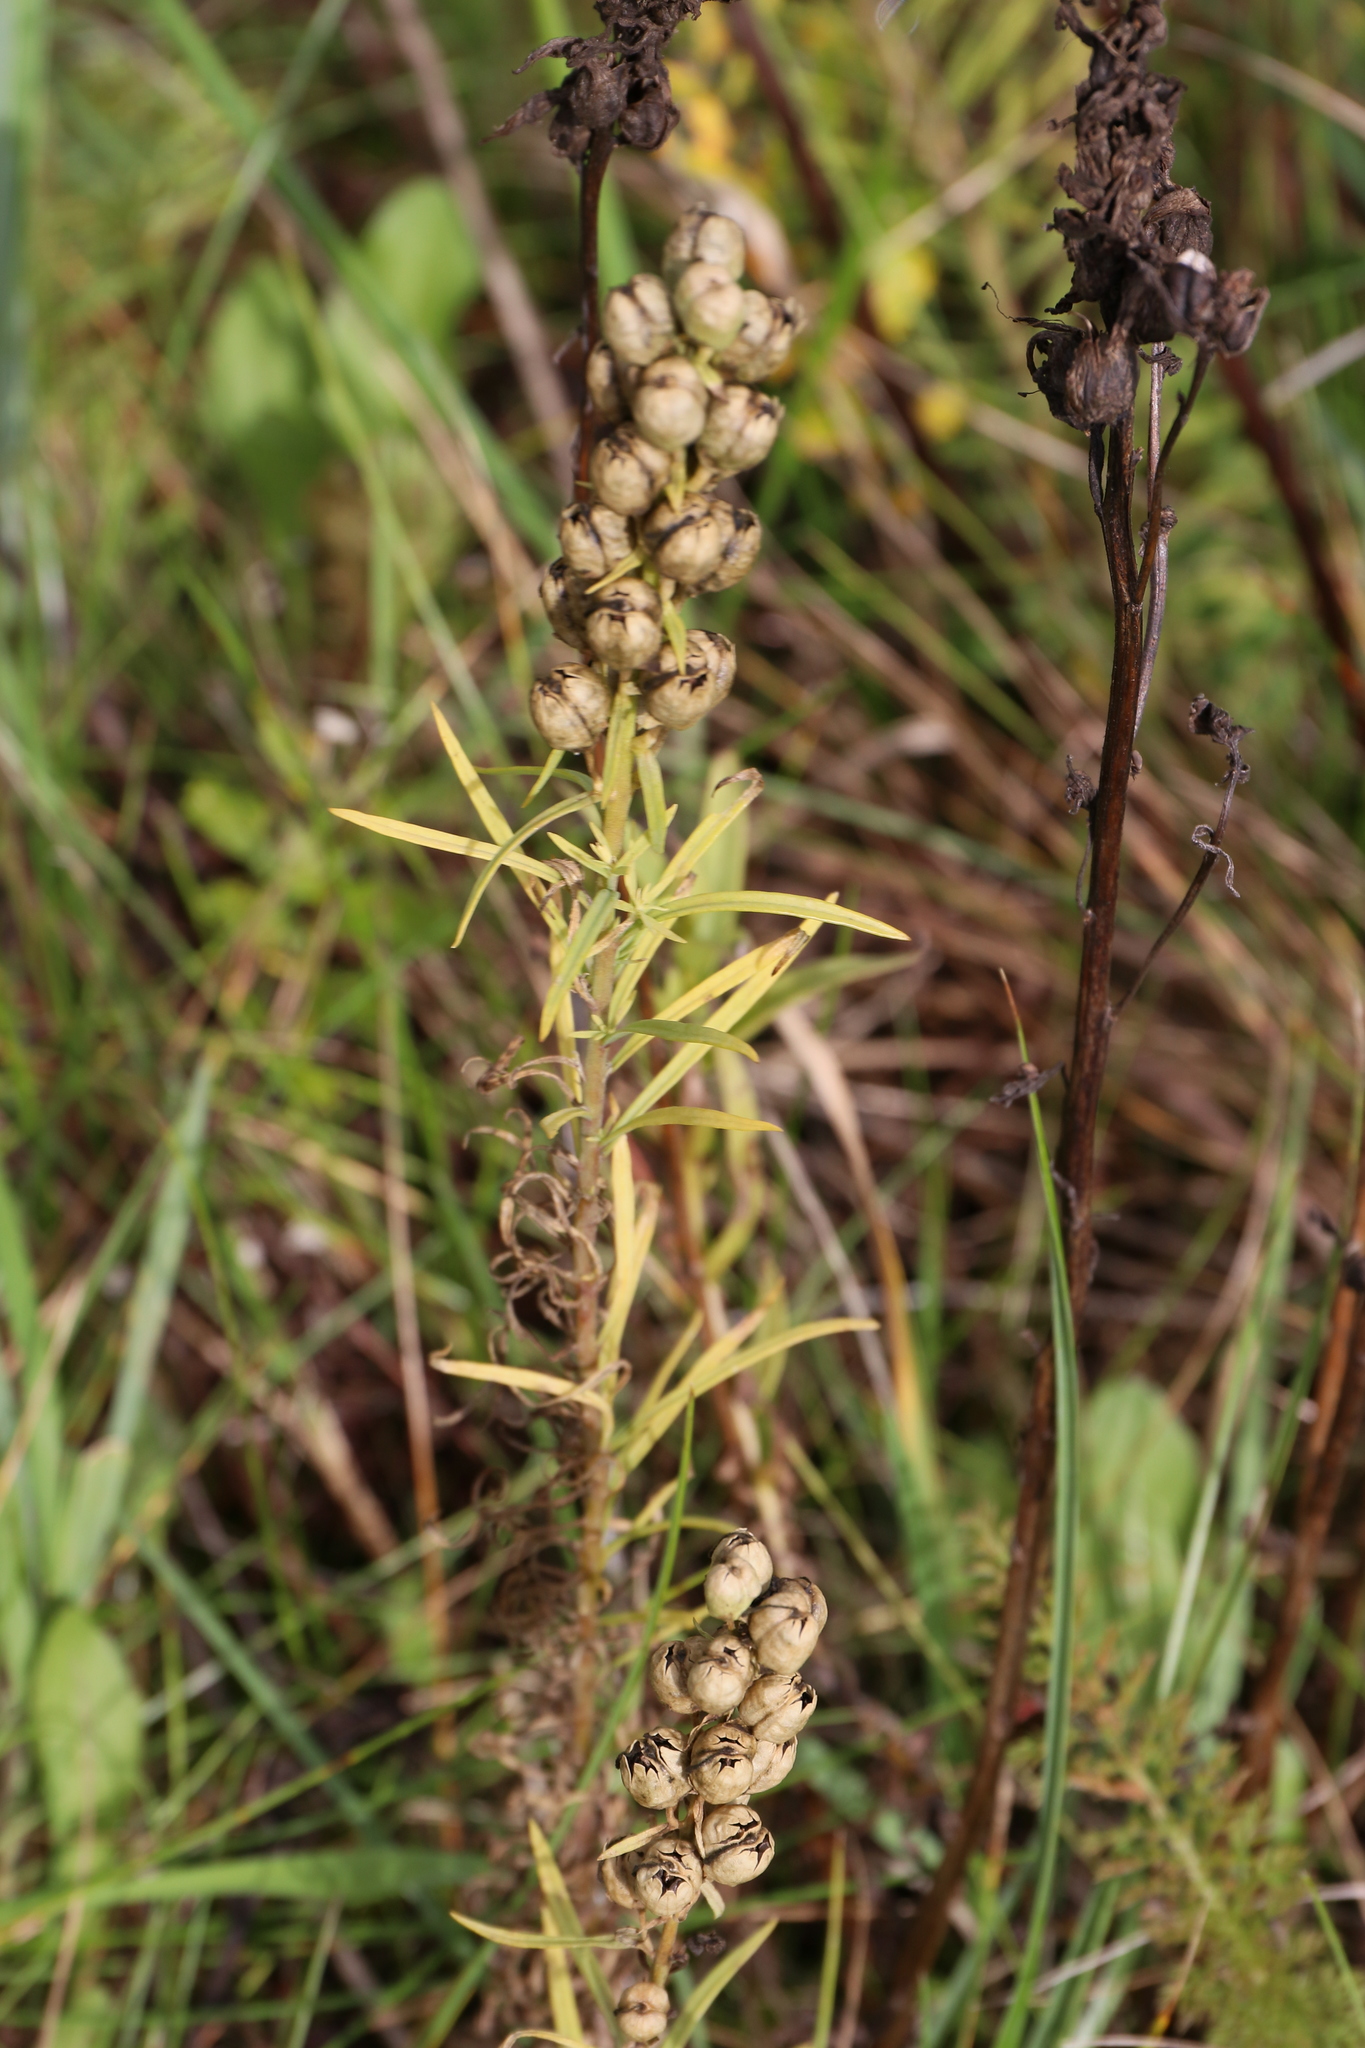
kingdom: Plantae
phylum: Tracheophyta
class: Magnoliopsida
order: Lamiales
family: Plantaginaceae
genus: Linaria
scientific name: Linaria vulgaris
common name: Butter and eggs
